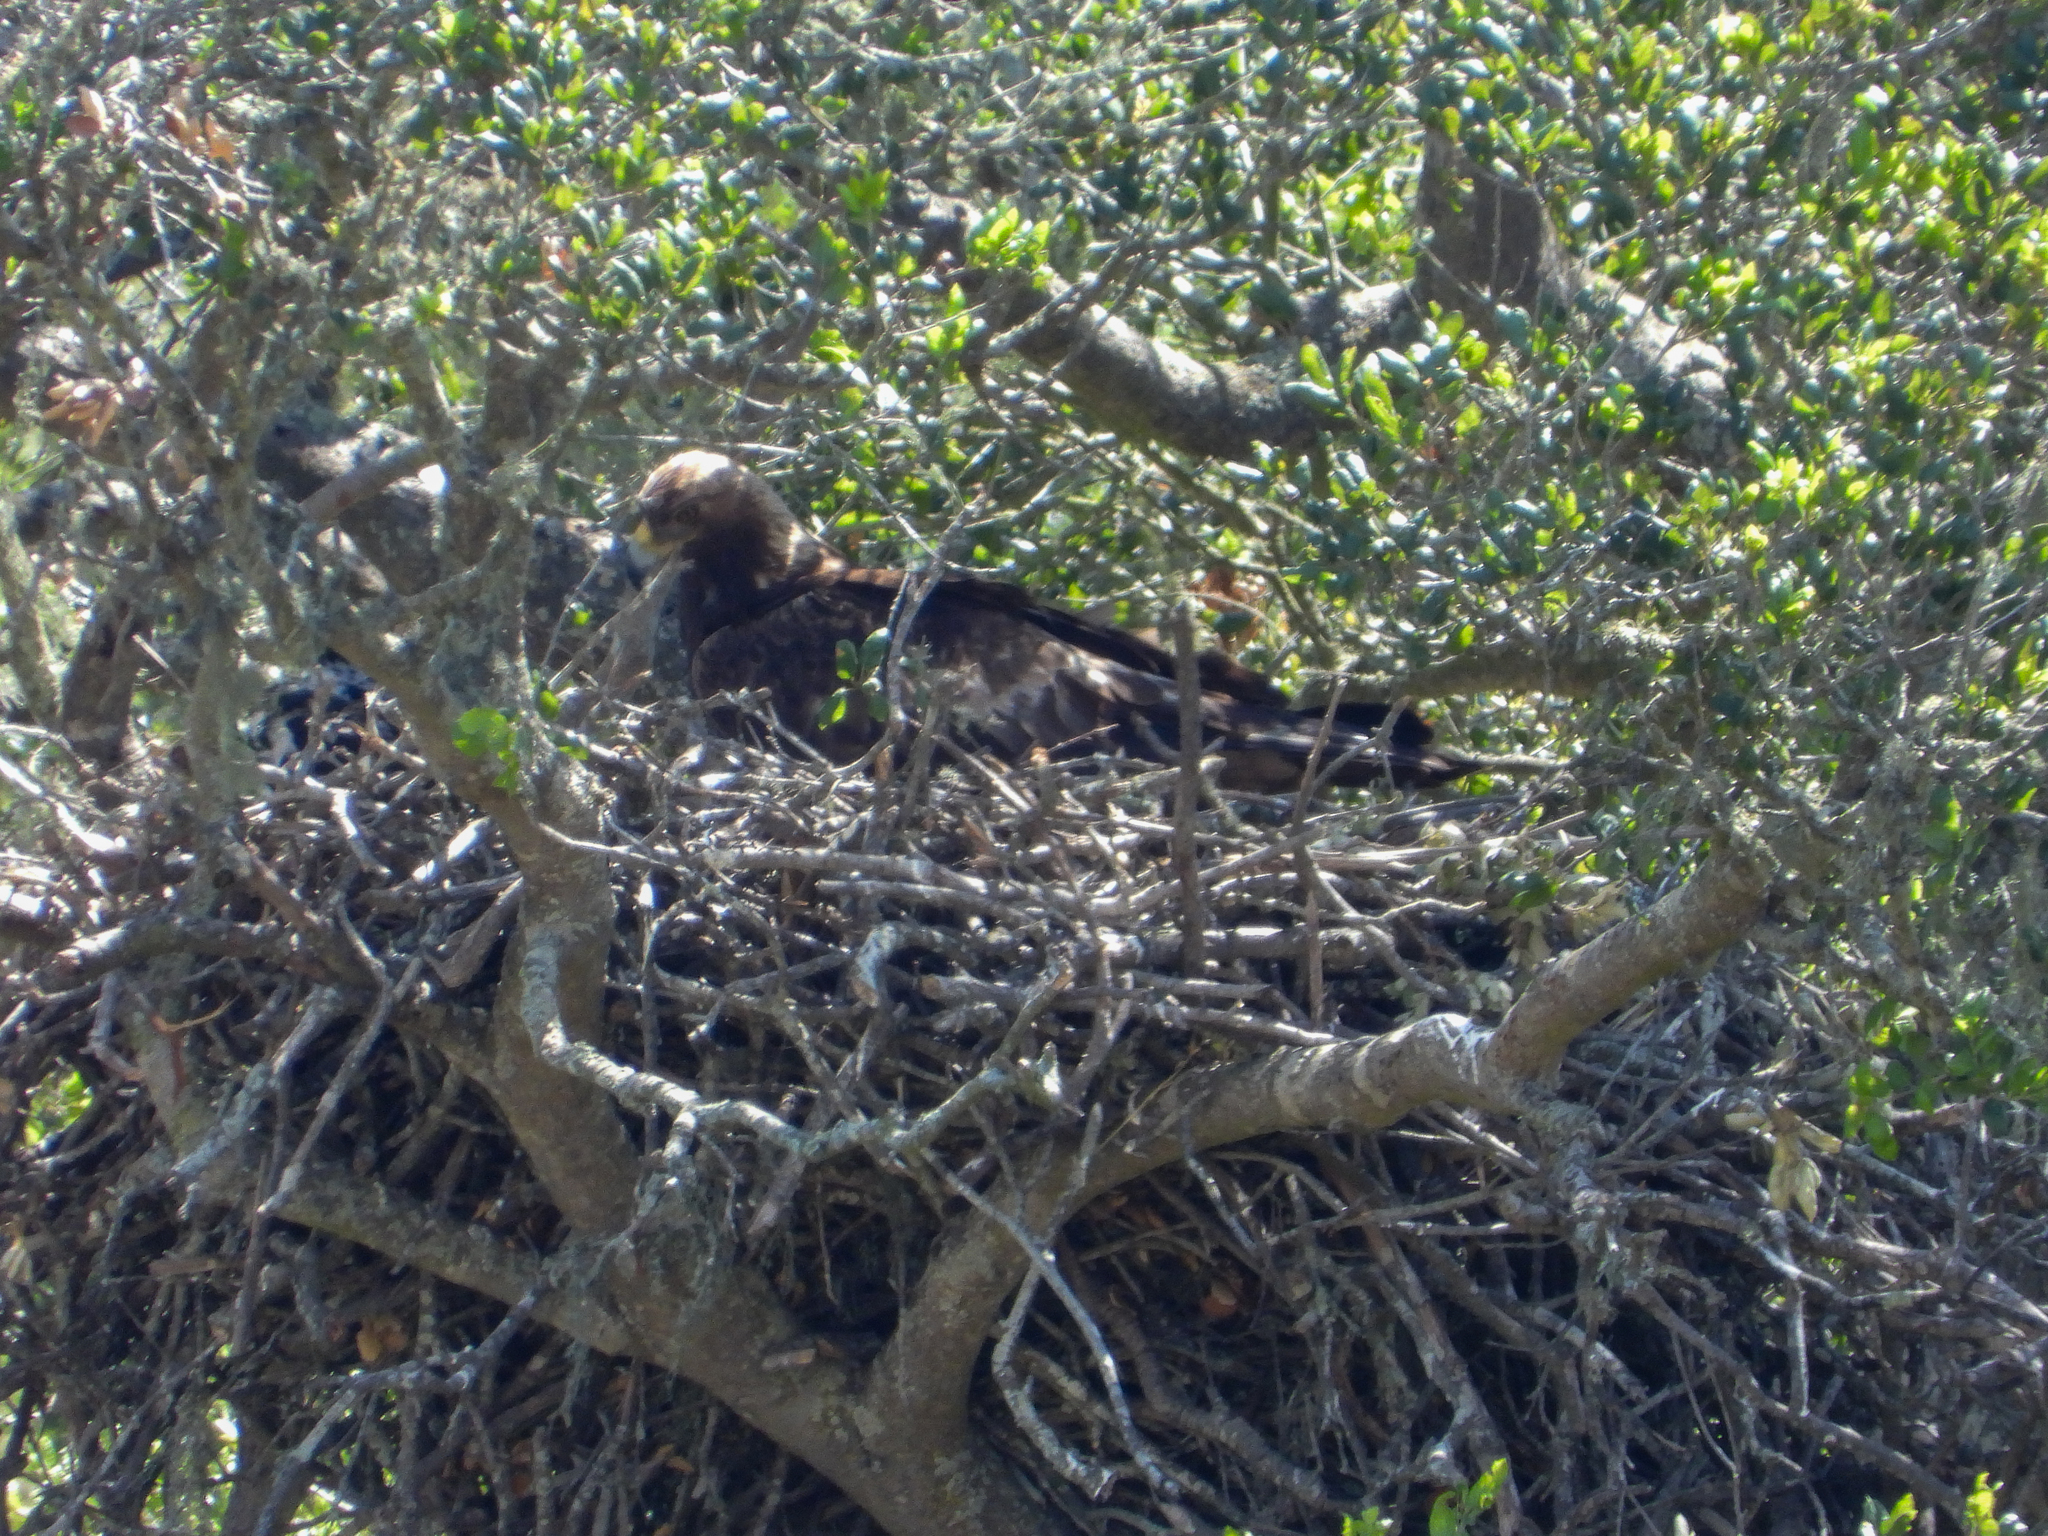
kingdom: Animalia
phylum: Chordata
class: Aves
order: Accipitriformes
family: Accipitridae
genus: Aquila
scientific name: Aquila chrysaetos
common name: Golden eagle
